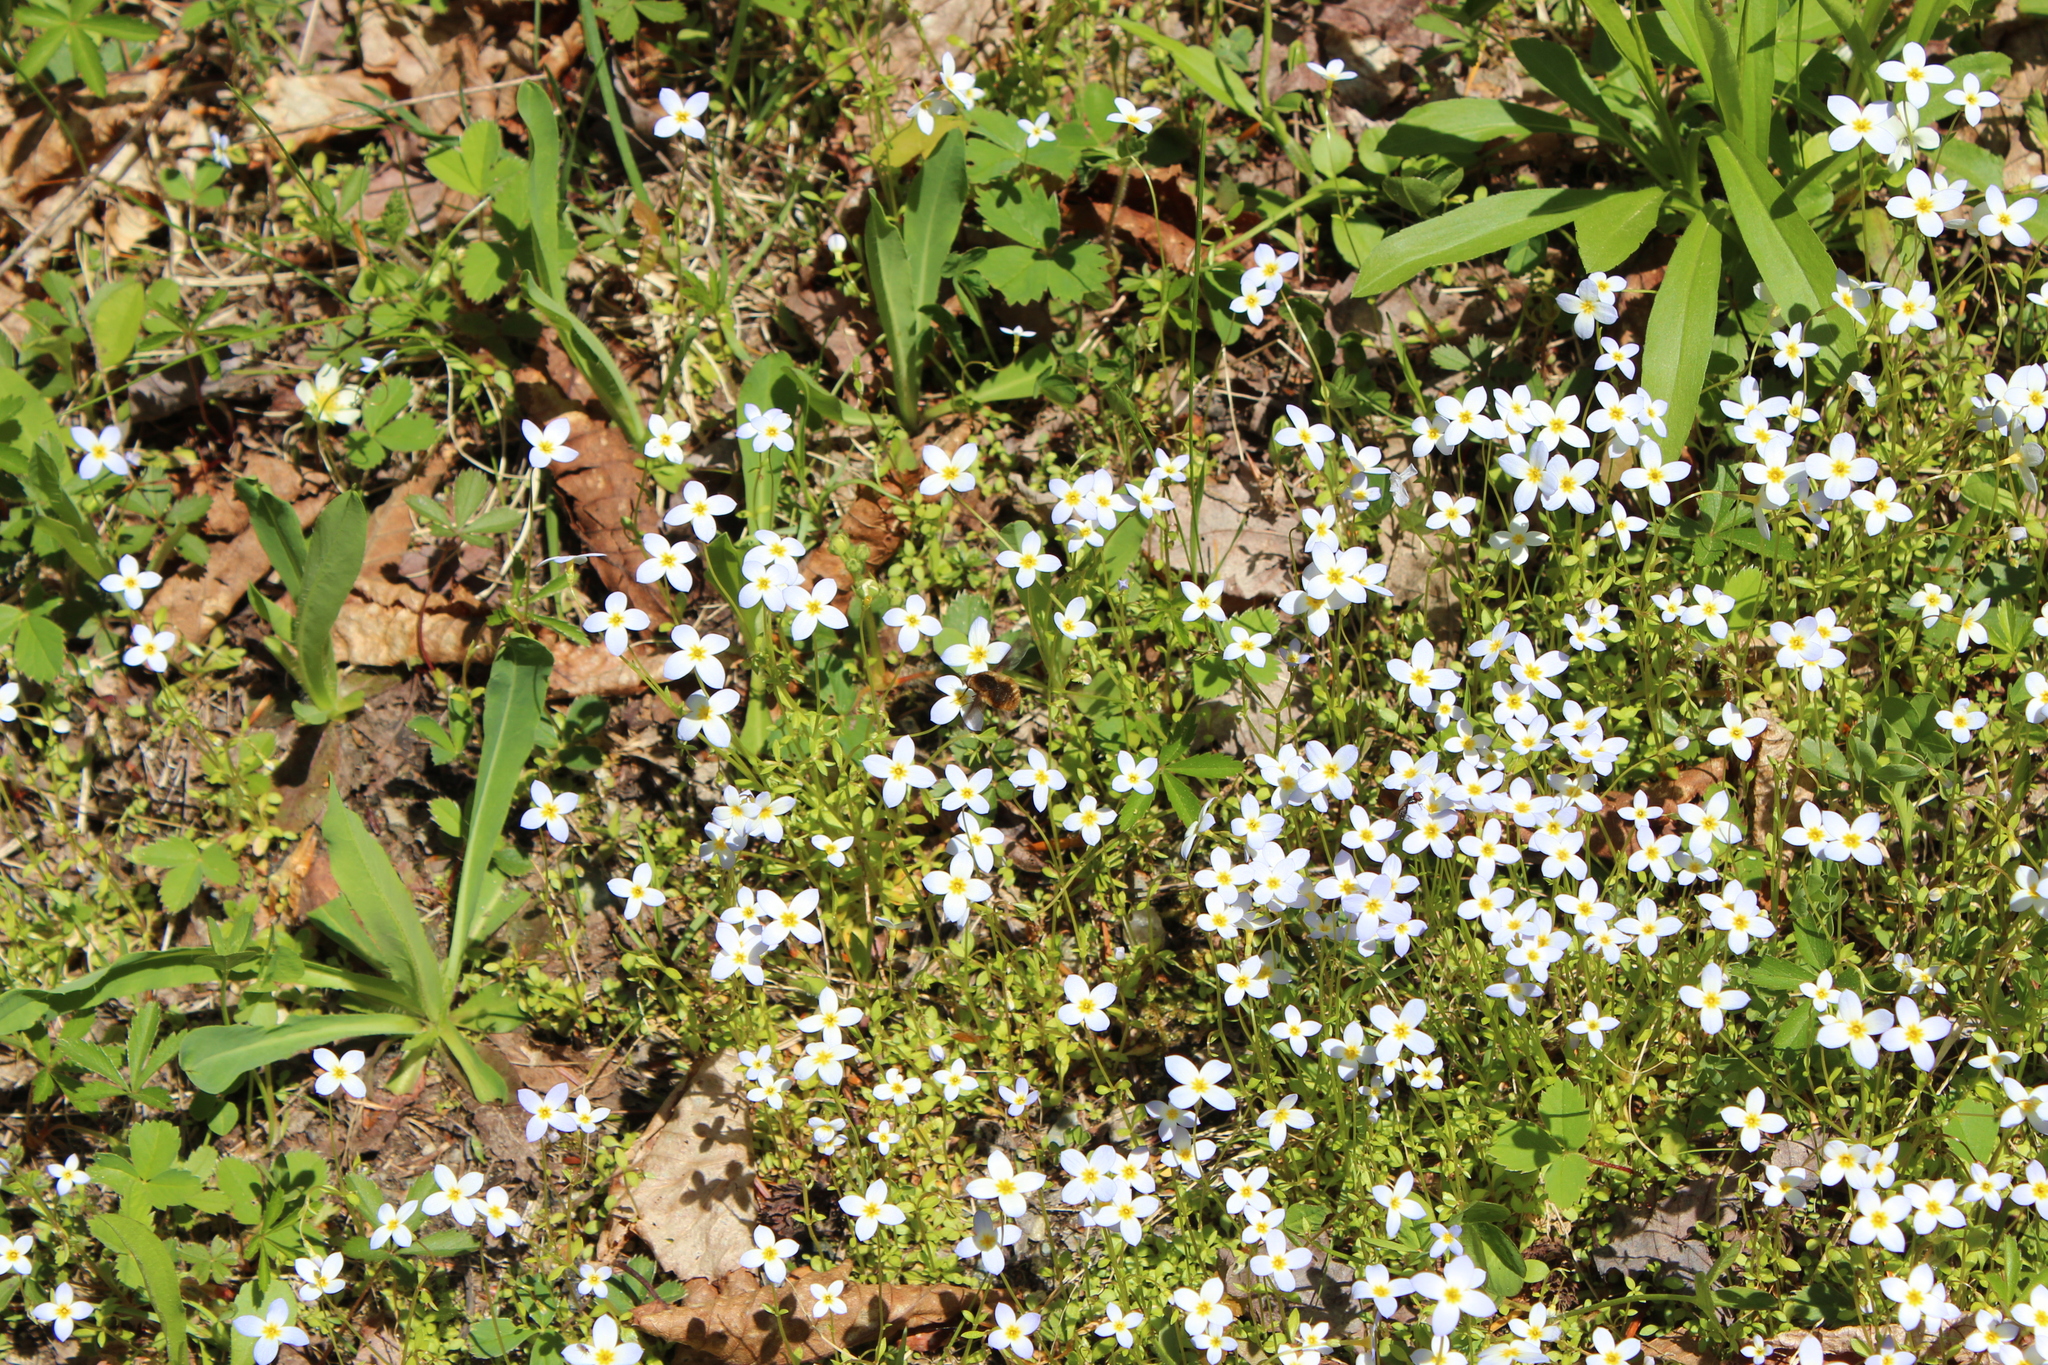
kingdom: Plantae
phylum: Tracheophyta
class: Magnoliopsida
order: Gentianales
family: Rubiaceae
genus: Houstonia
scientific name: Houstonia caerulea
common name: Bluets
